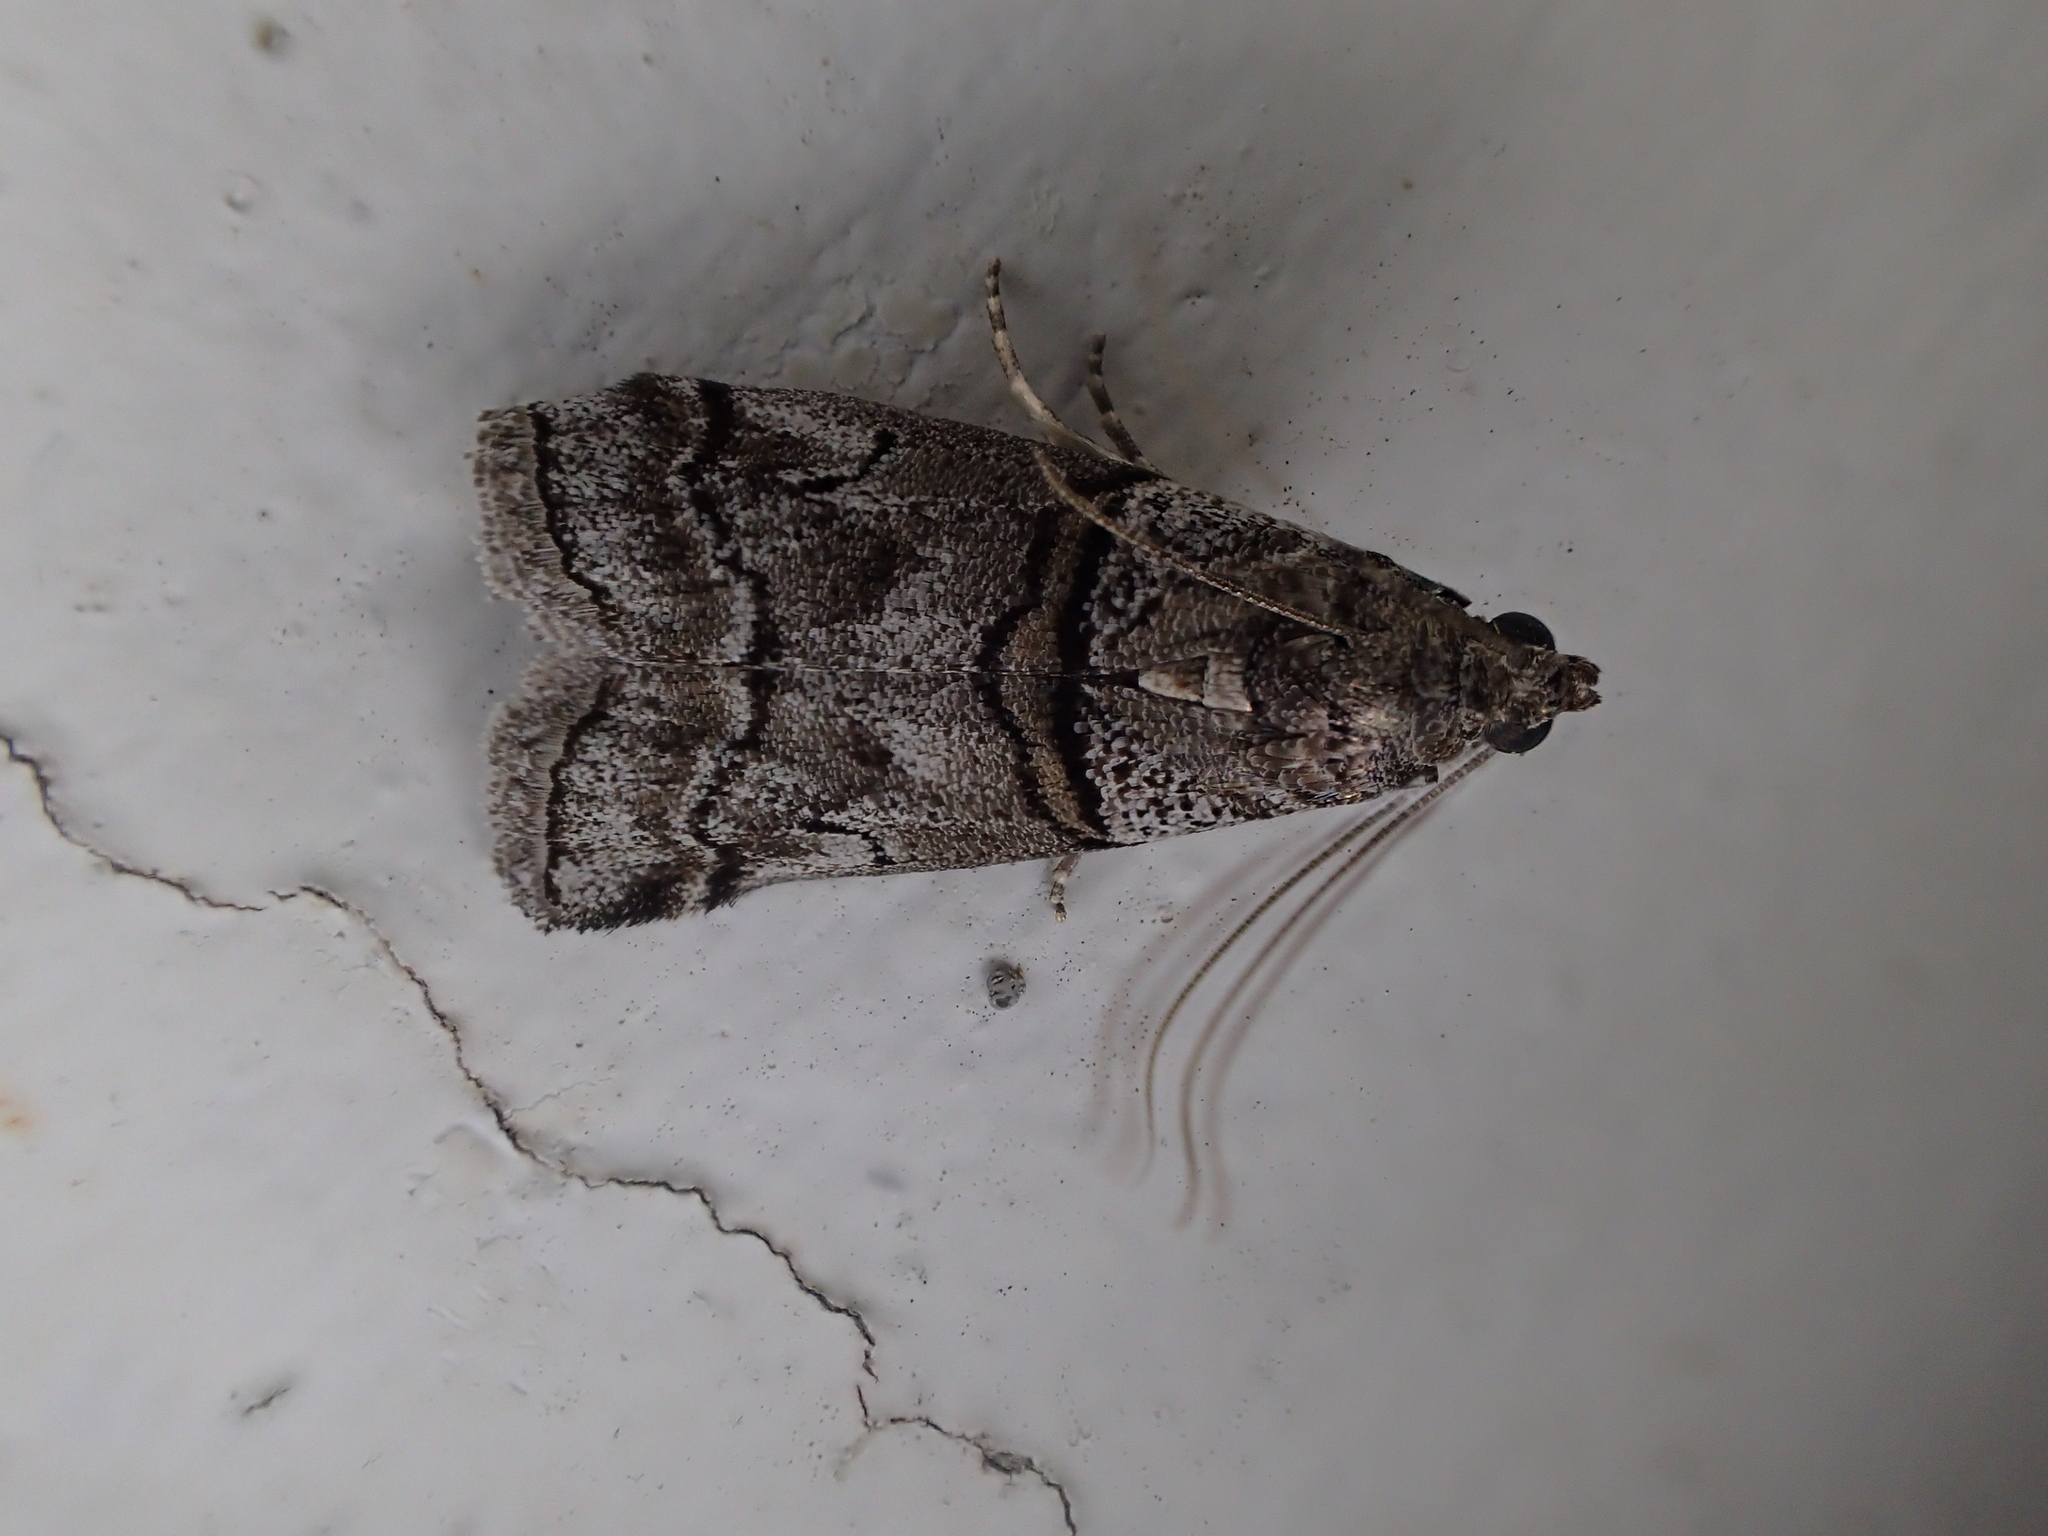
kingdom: Animalia
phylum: Arthropoda
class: Insecta
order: Lepidoptera
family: Pyralidae
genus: Acrobasis
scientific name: Acrobasis romanella
